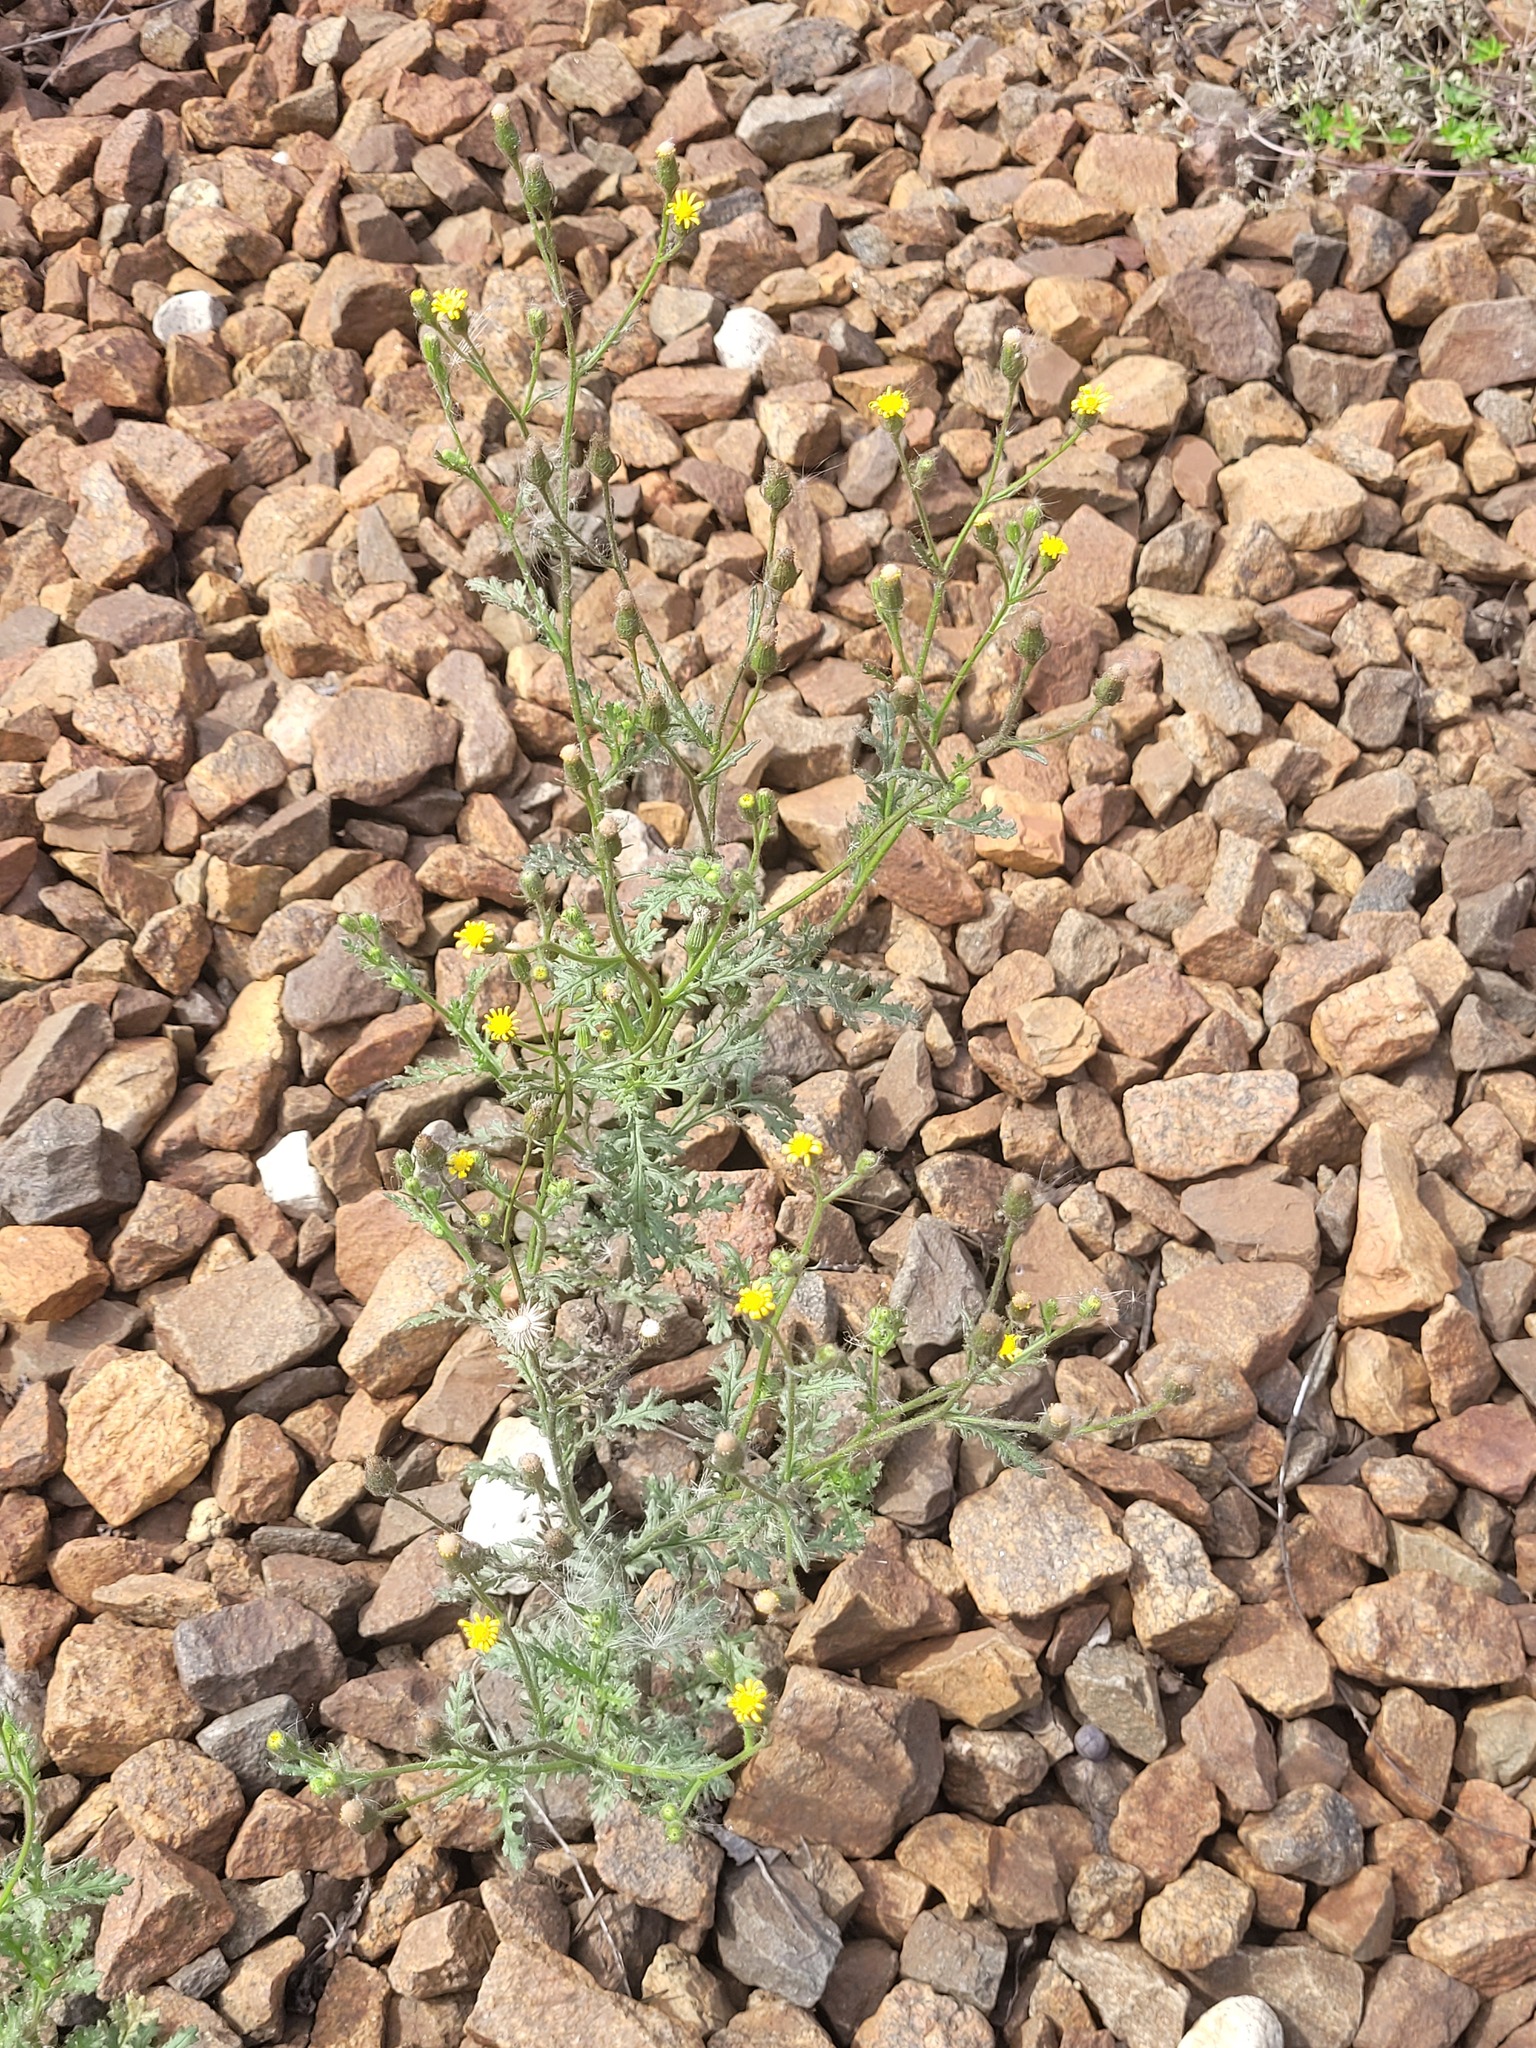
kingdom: Plantae
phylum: Tracheophyta
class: Magnoliopsida
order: Asterales
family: Asteraceae
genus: Senecio
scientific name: Senecio viscosus
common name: Sticky groundsel
